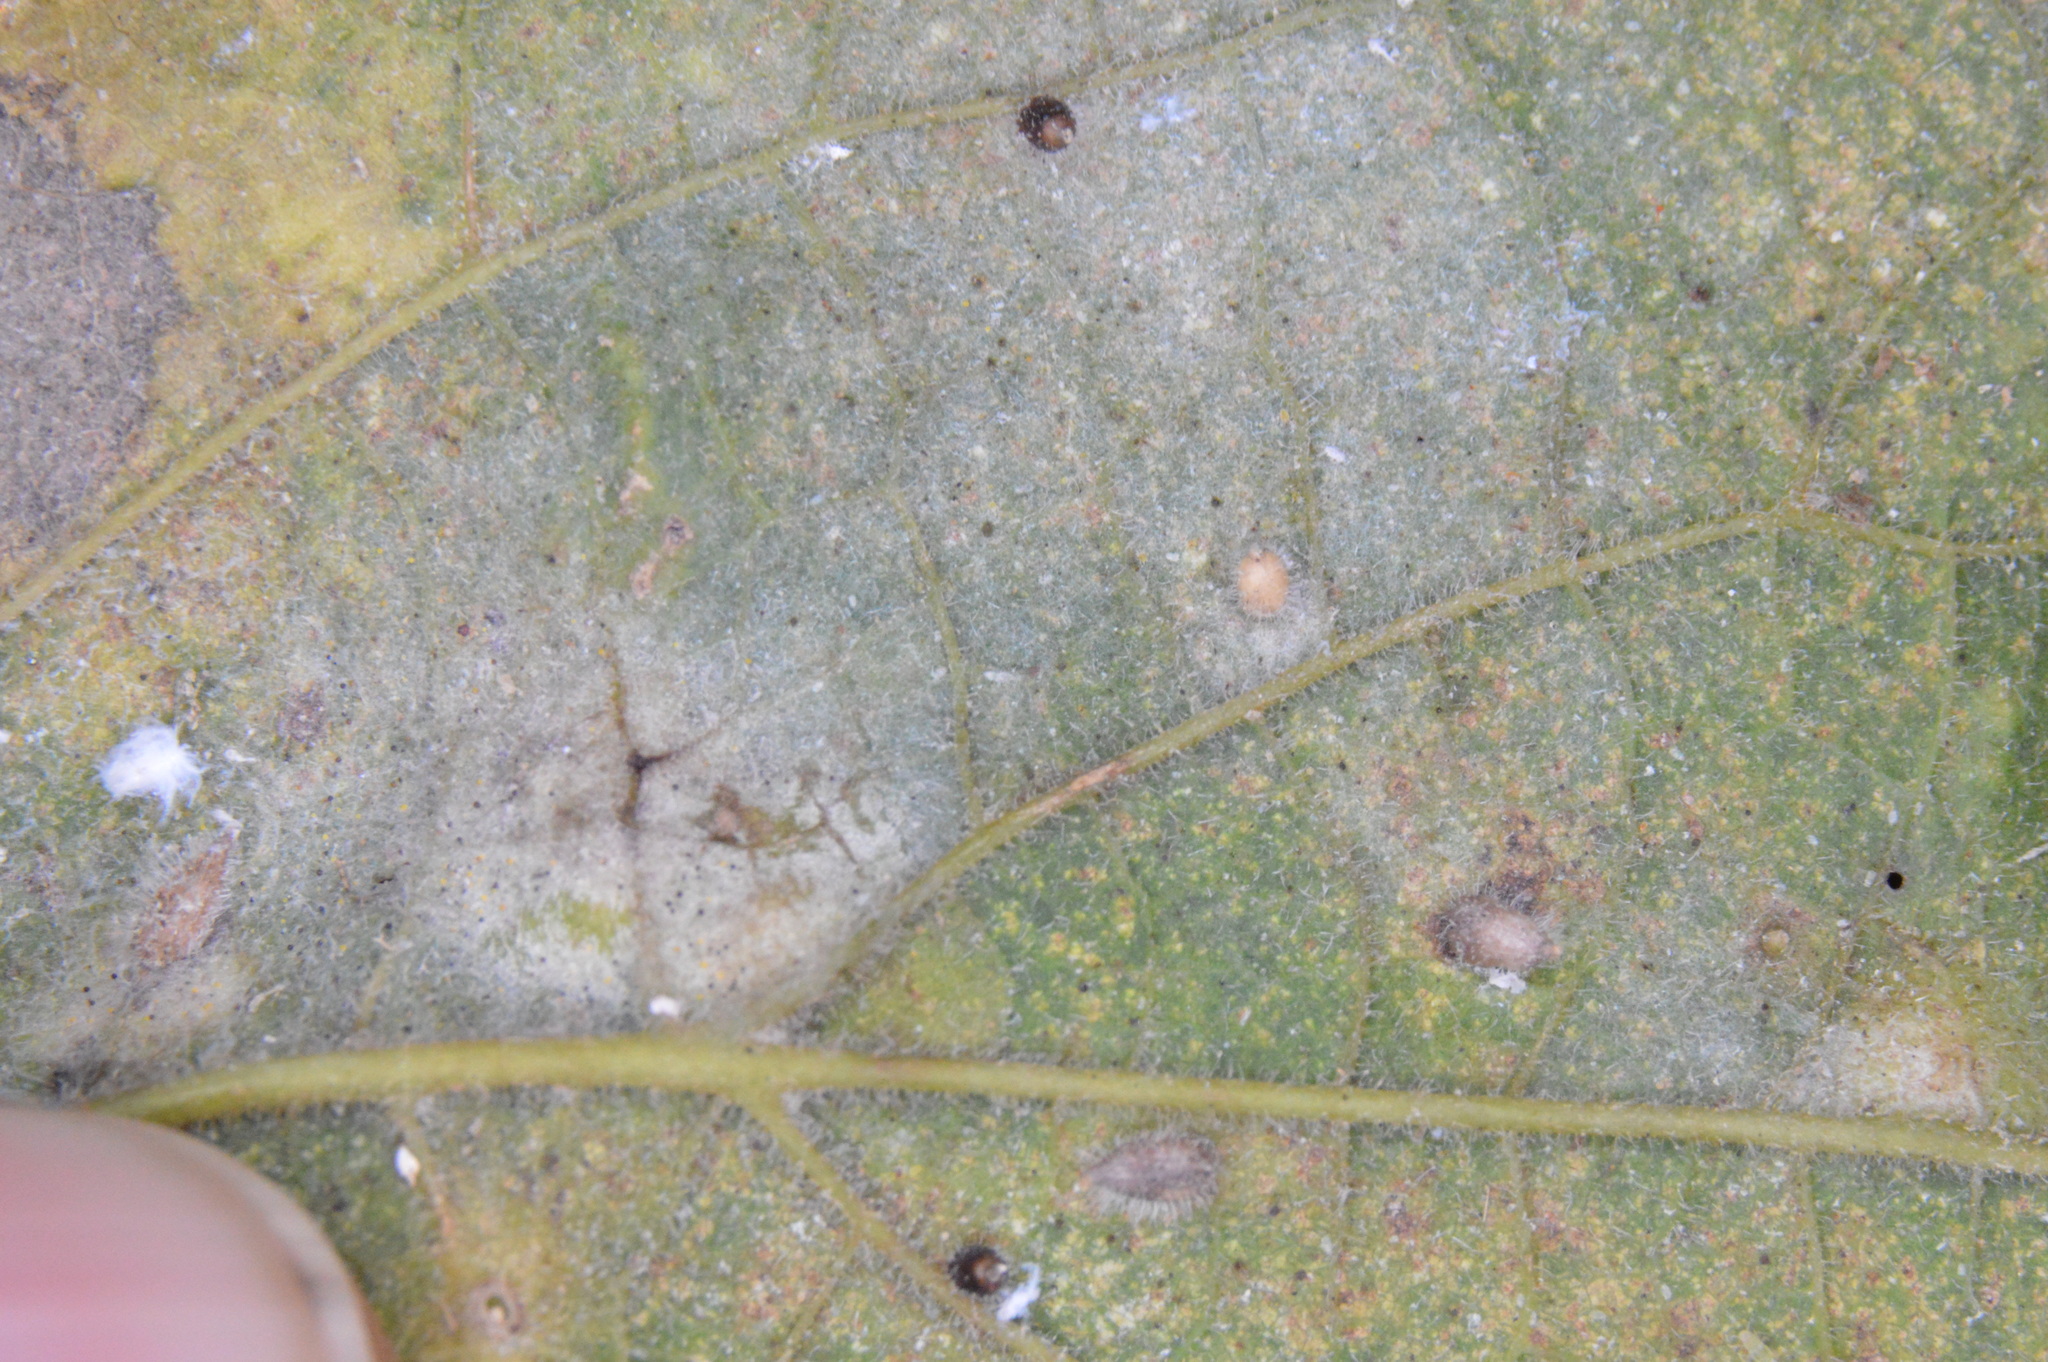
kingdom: Animalia
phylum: Arthropoda
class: Insecta
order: Diptera
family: Cecidomyiidae
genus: Celticecis
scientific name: Celticecis cupiformis
